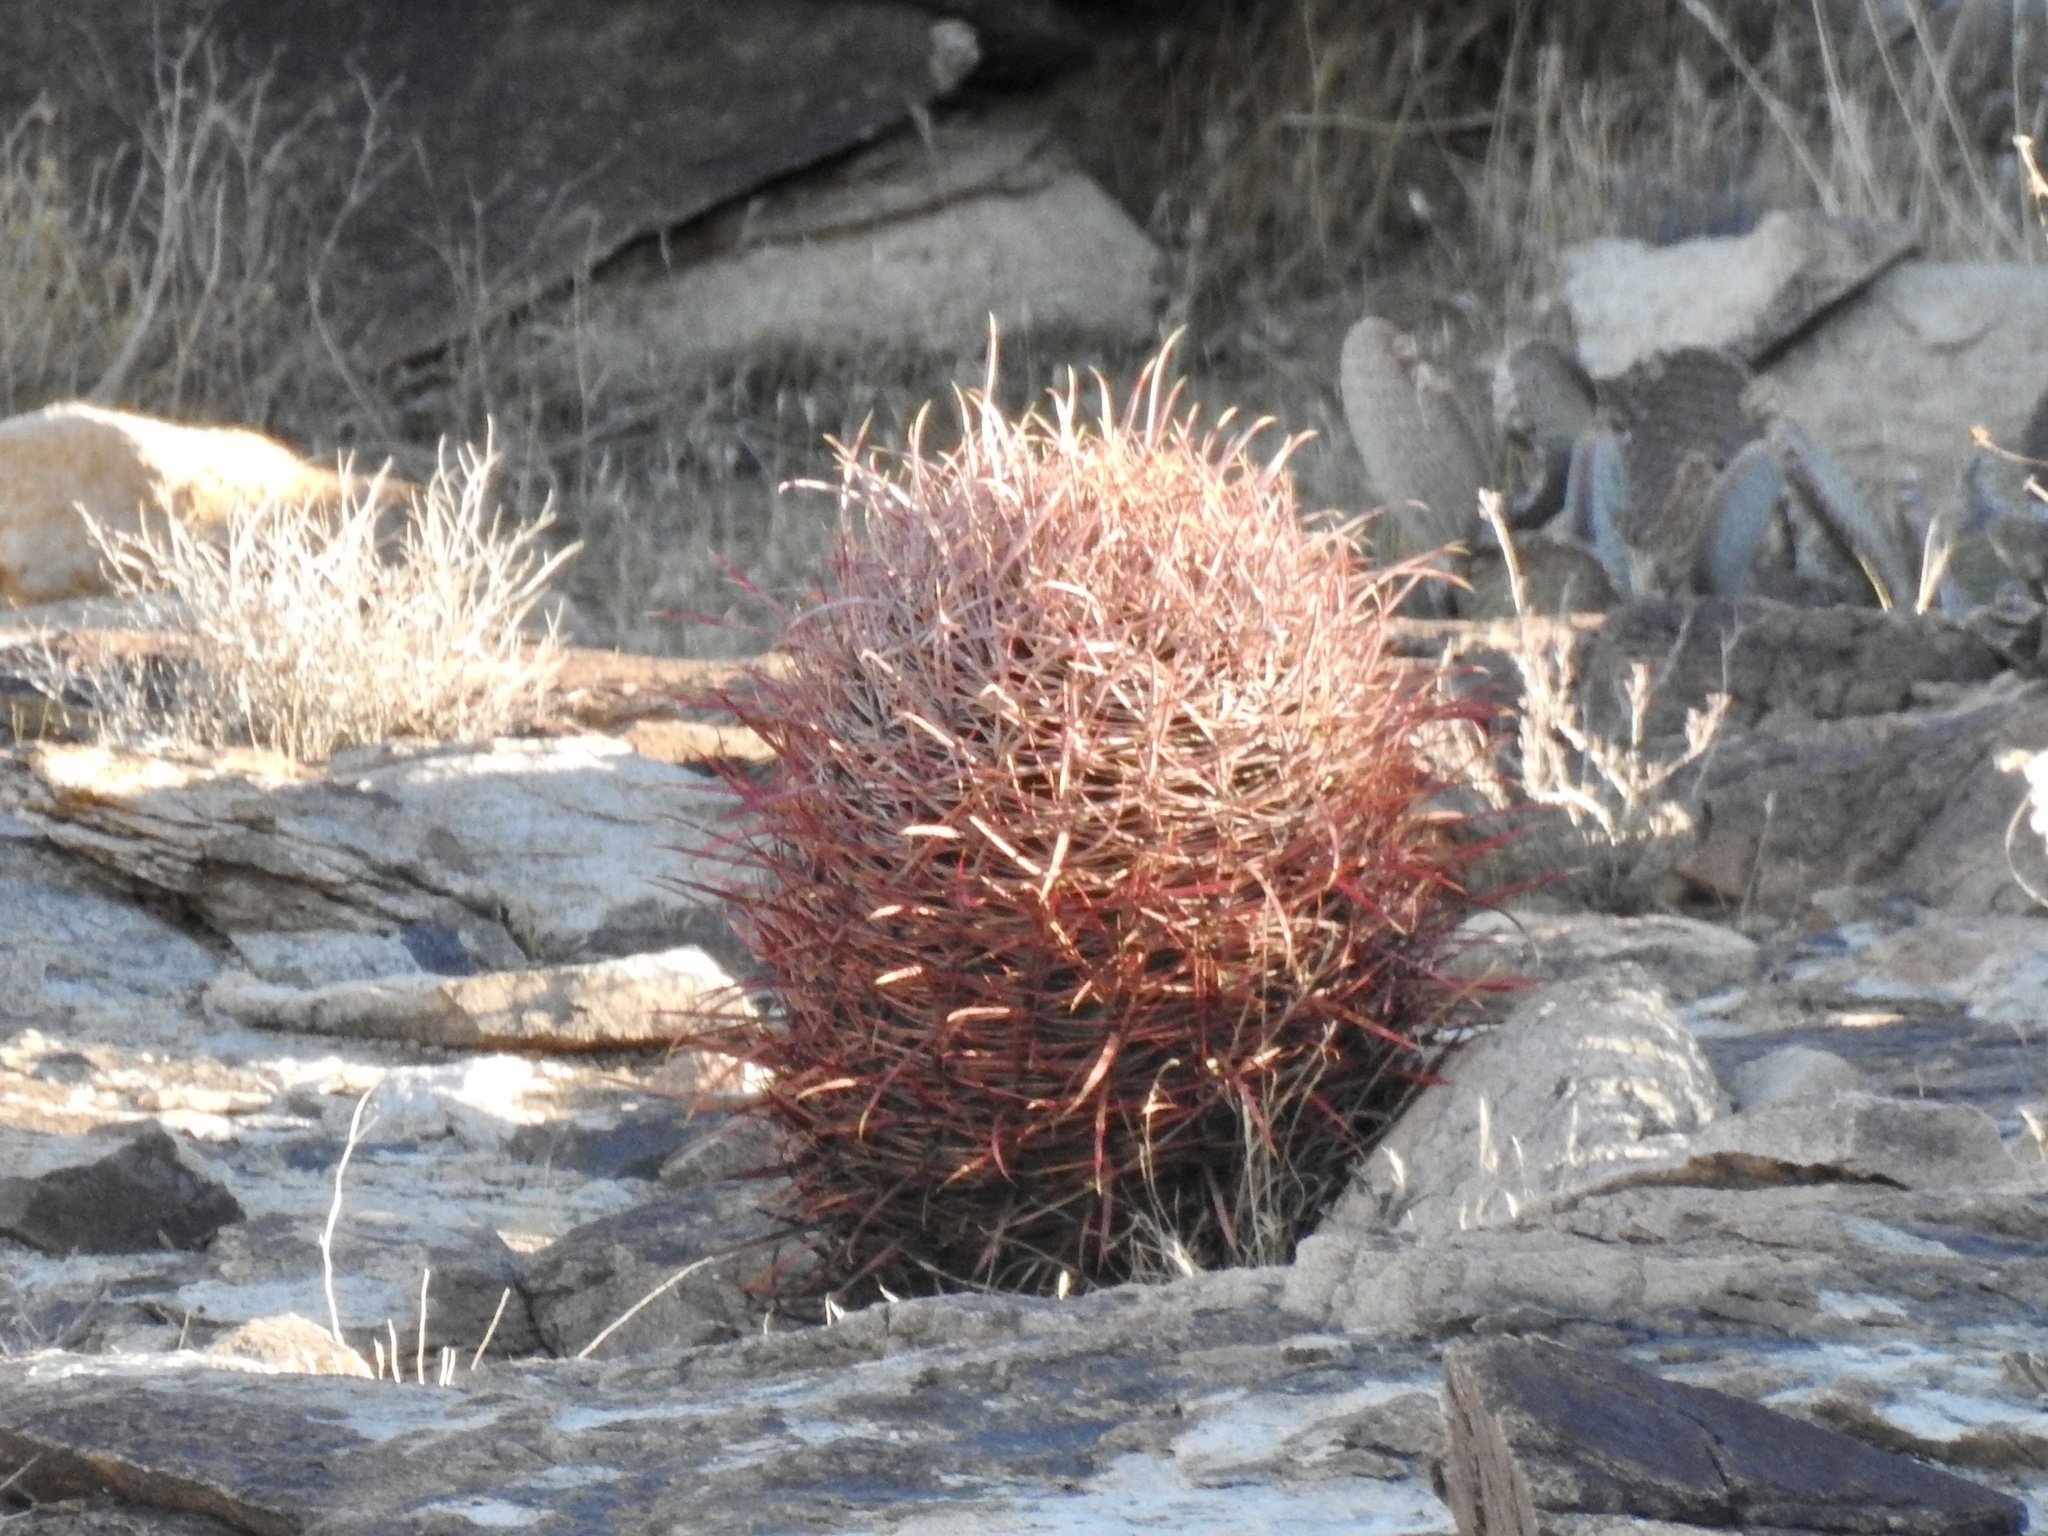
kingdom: Plantae
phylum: Tracheophyta
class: Magnoliopsida
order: Caryophyllales
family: Cactaceae
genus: Ferocactus
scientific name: Ferocactus cylindraceus
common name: California barrel cactus
